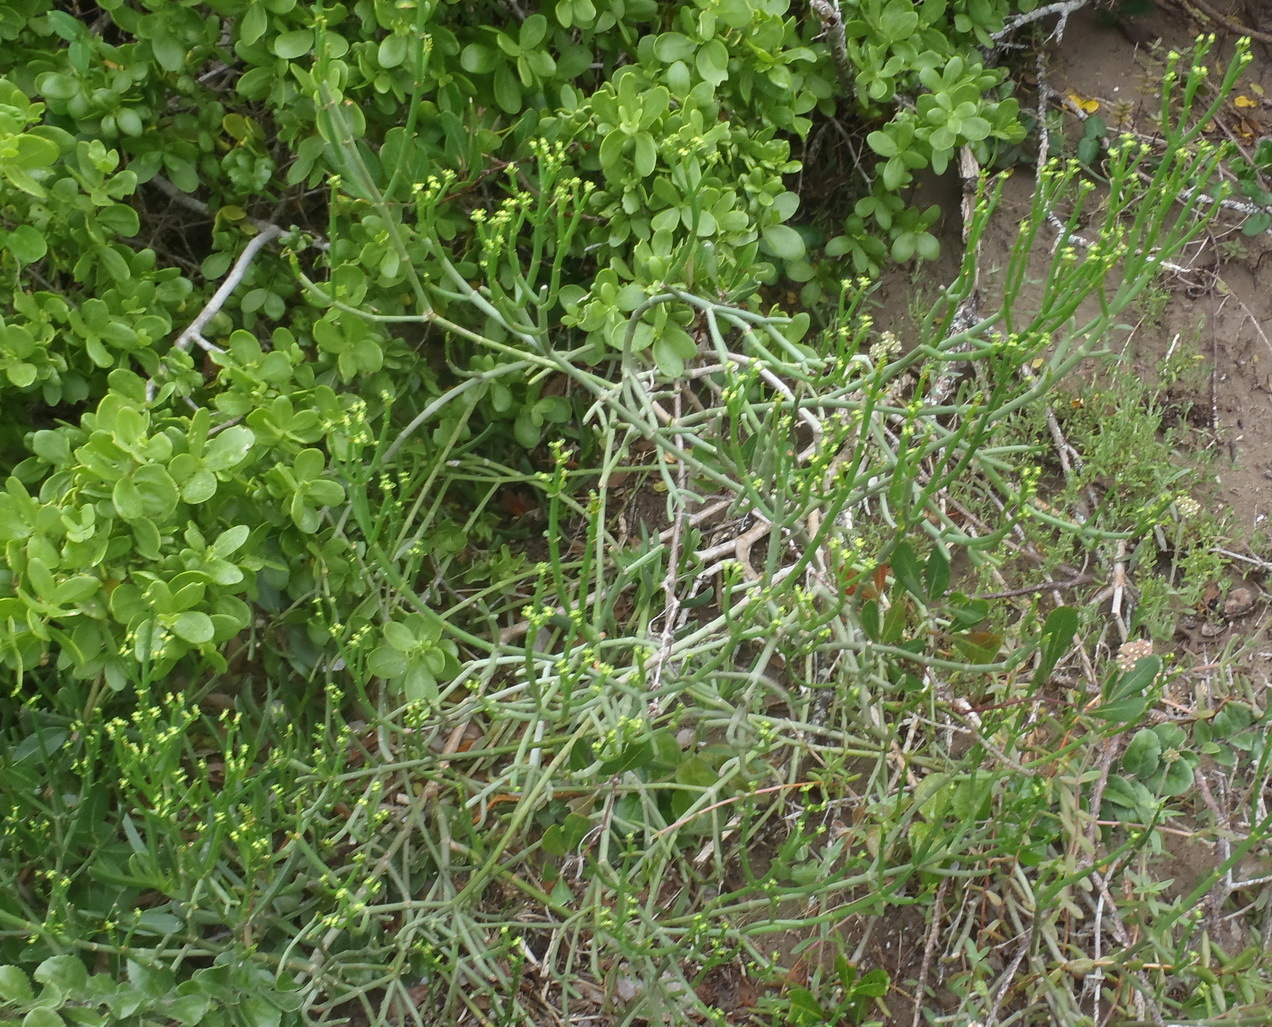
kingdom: Plantae
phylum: Tracheophyta
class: Magnoliopsida
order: Malpighiales
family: Euphorbiaceae
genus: Euphorbia
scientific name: Euphorbia burmanni
